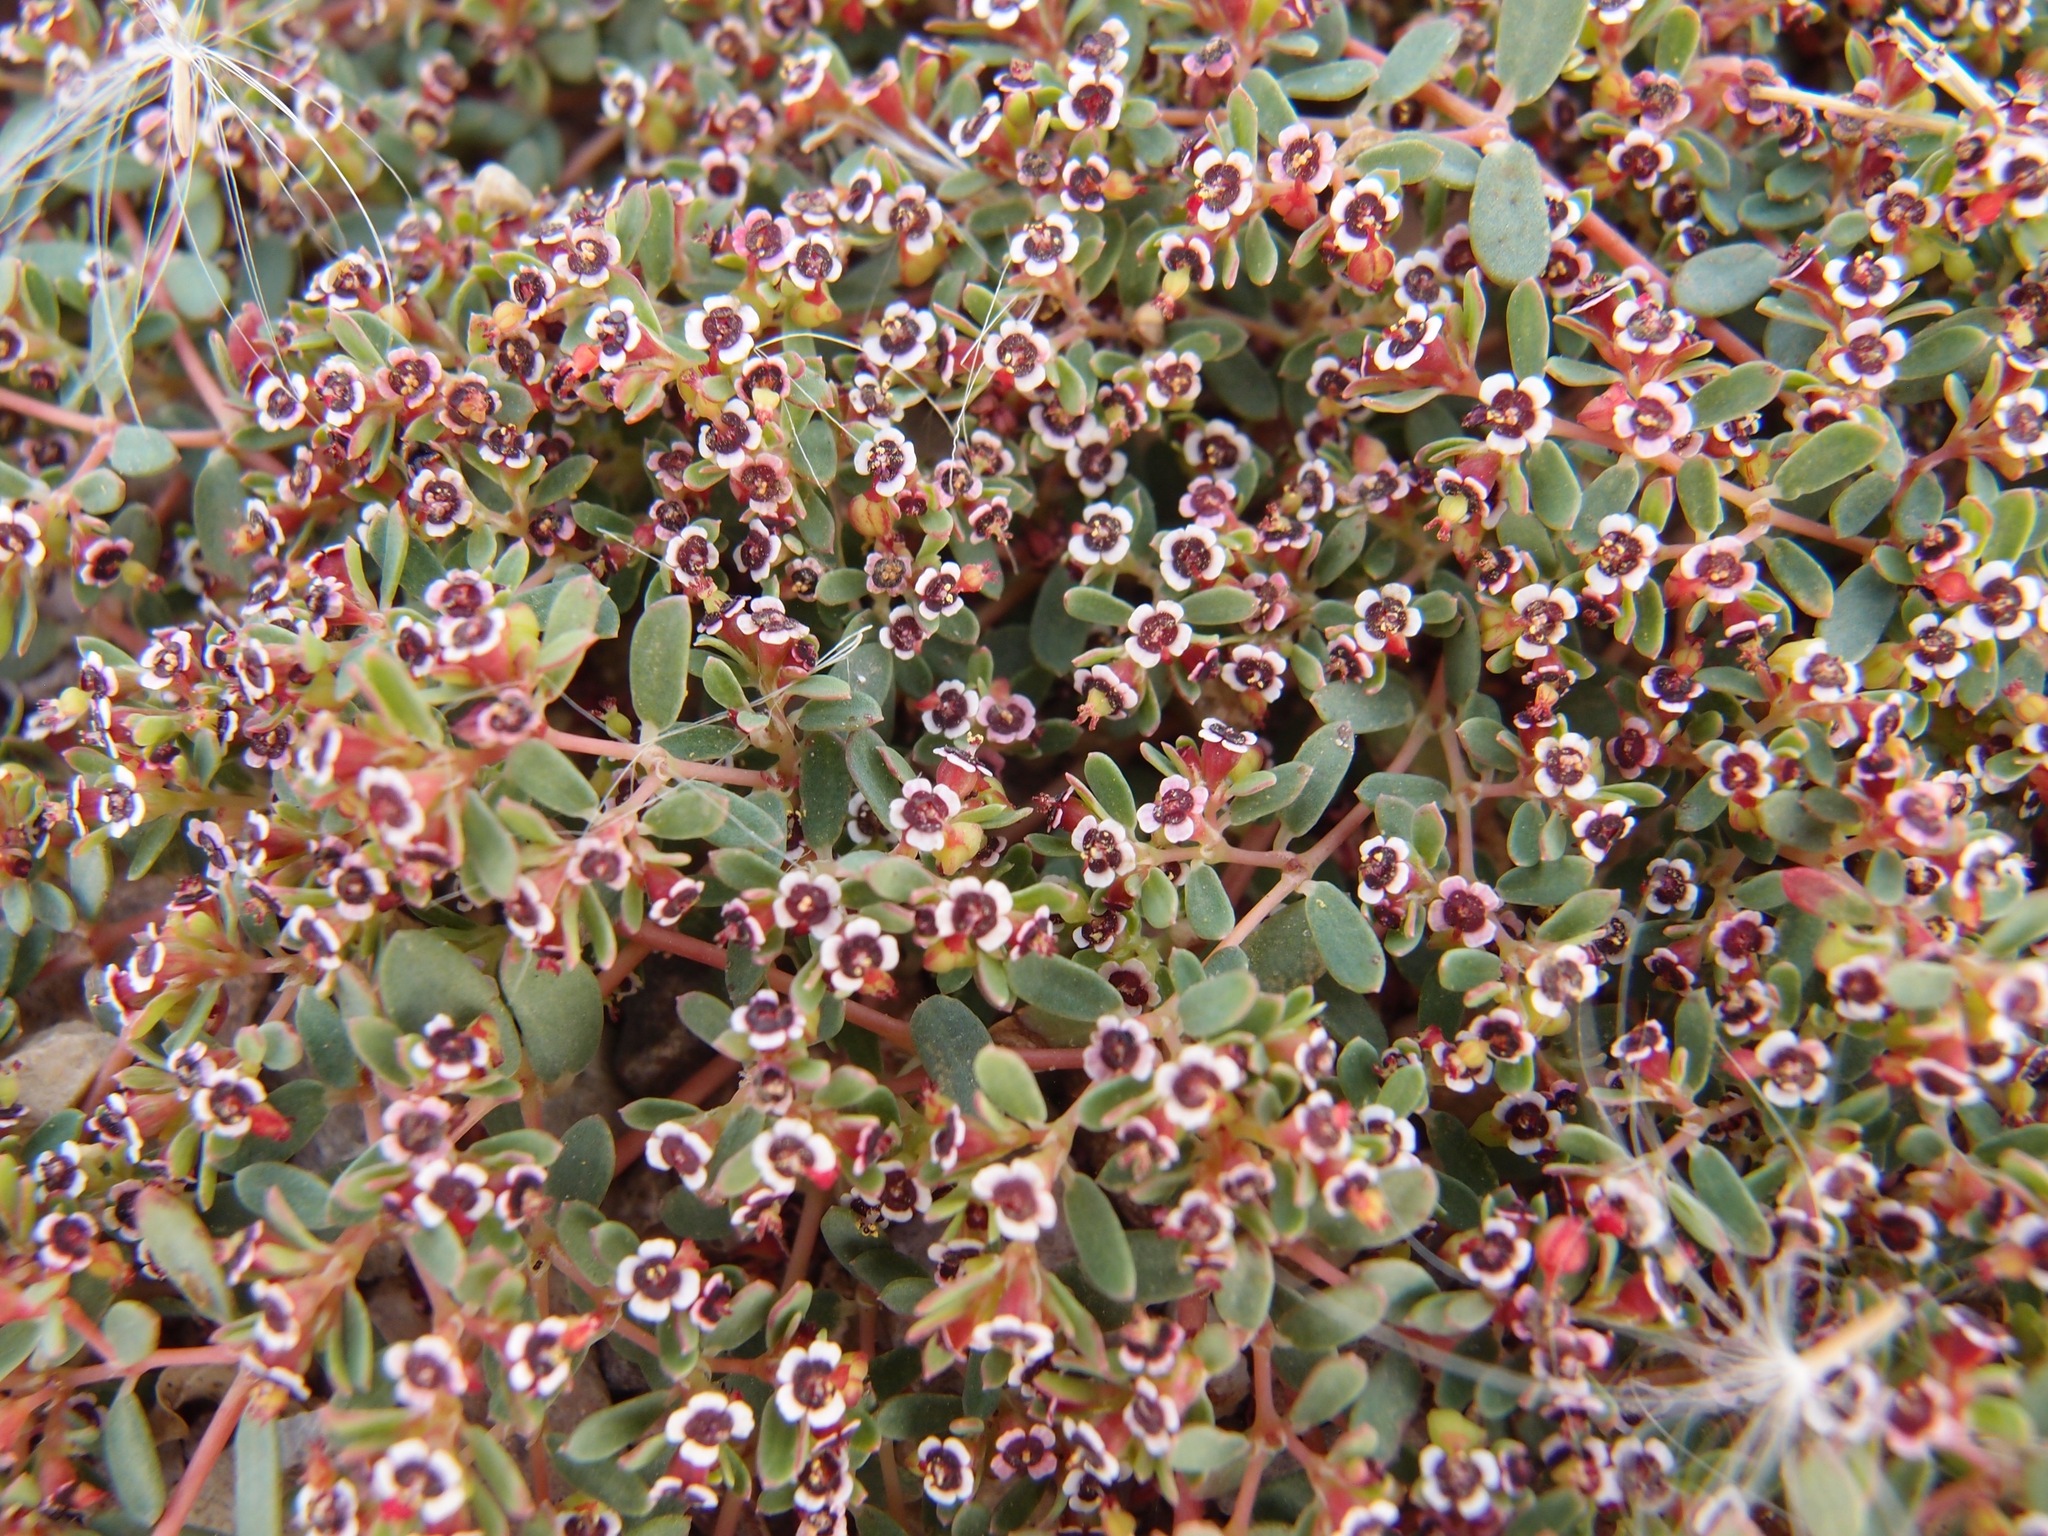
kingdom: Plantae
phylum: Tracheophyta
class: Magnoliopsida
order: Malpighiales
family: Euphorbiaceae
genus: Euphorbia
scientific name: Euphorbia polycarpa
